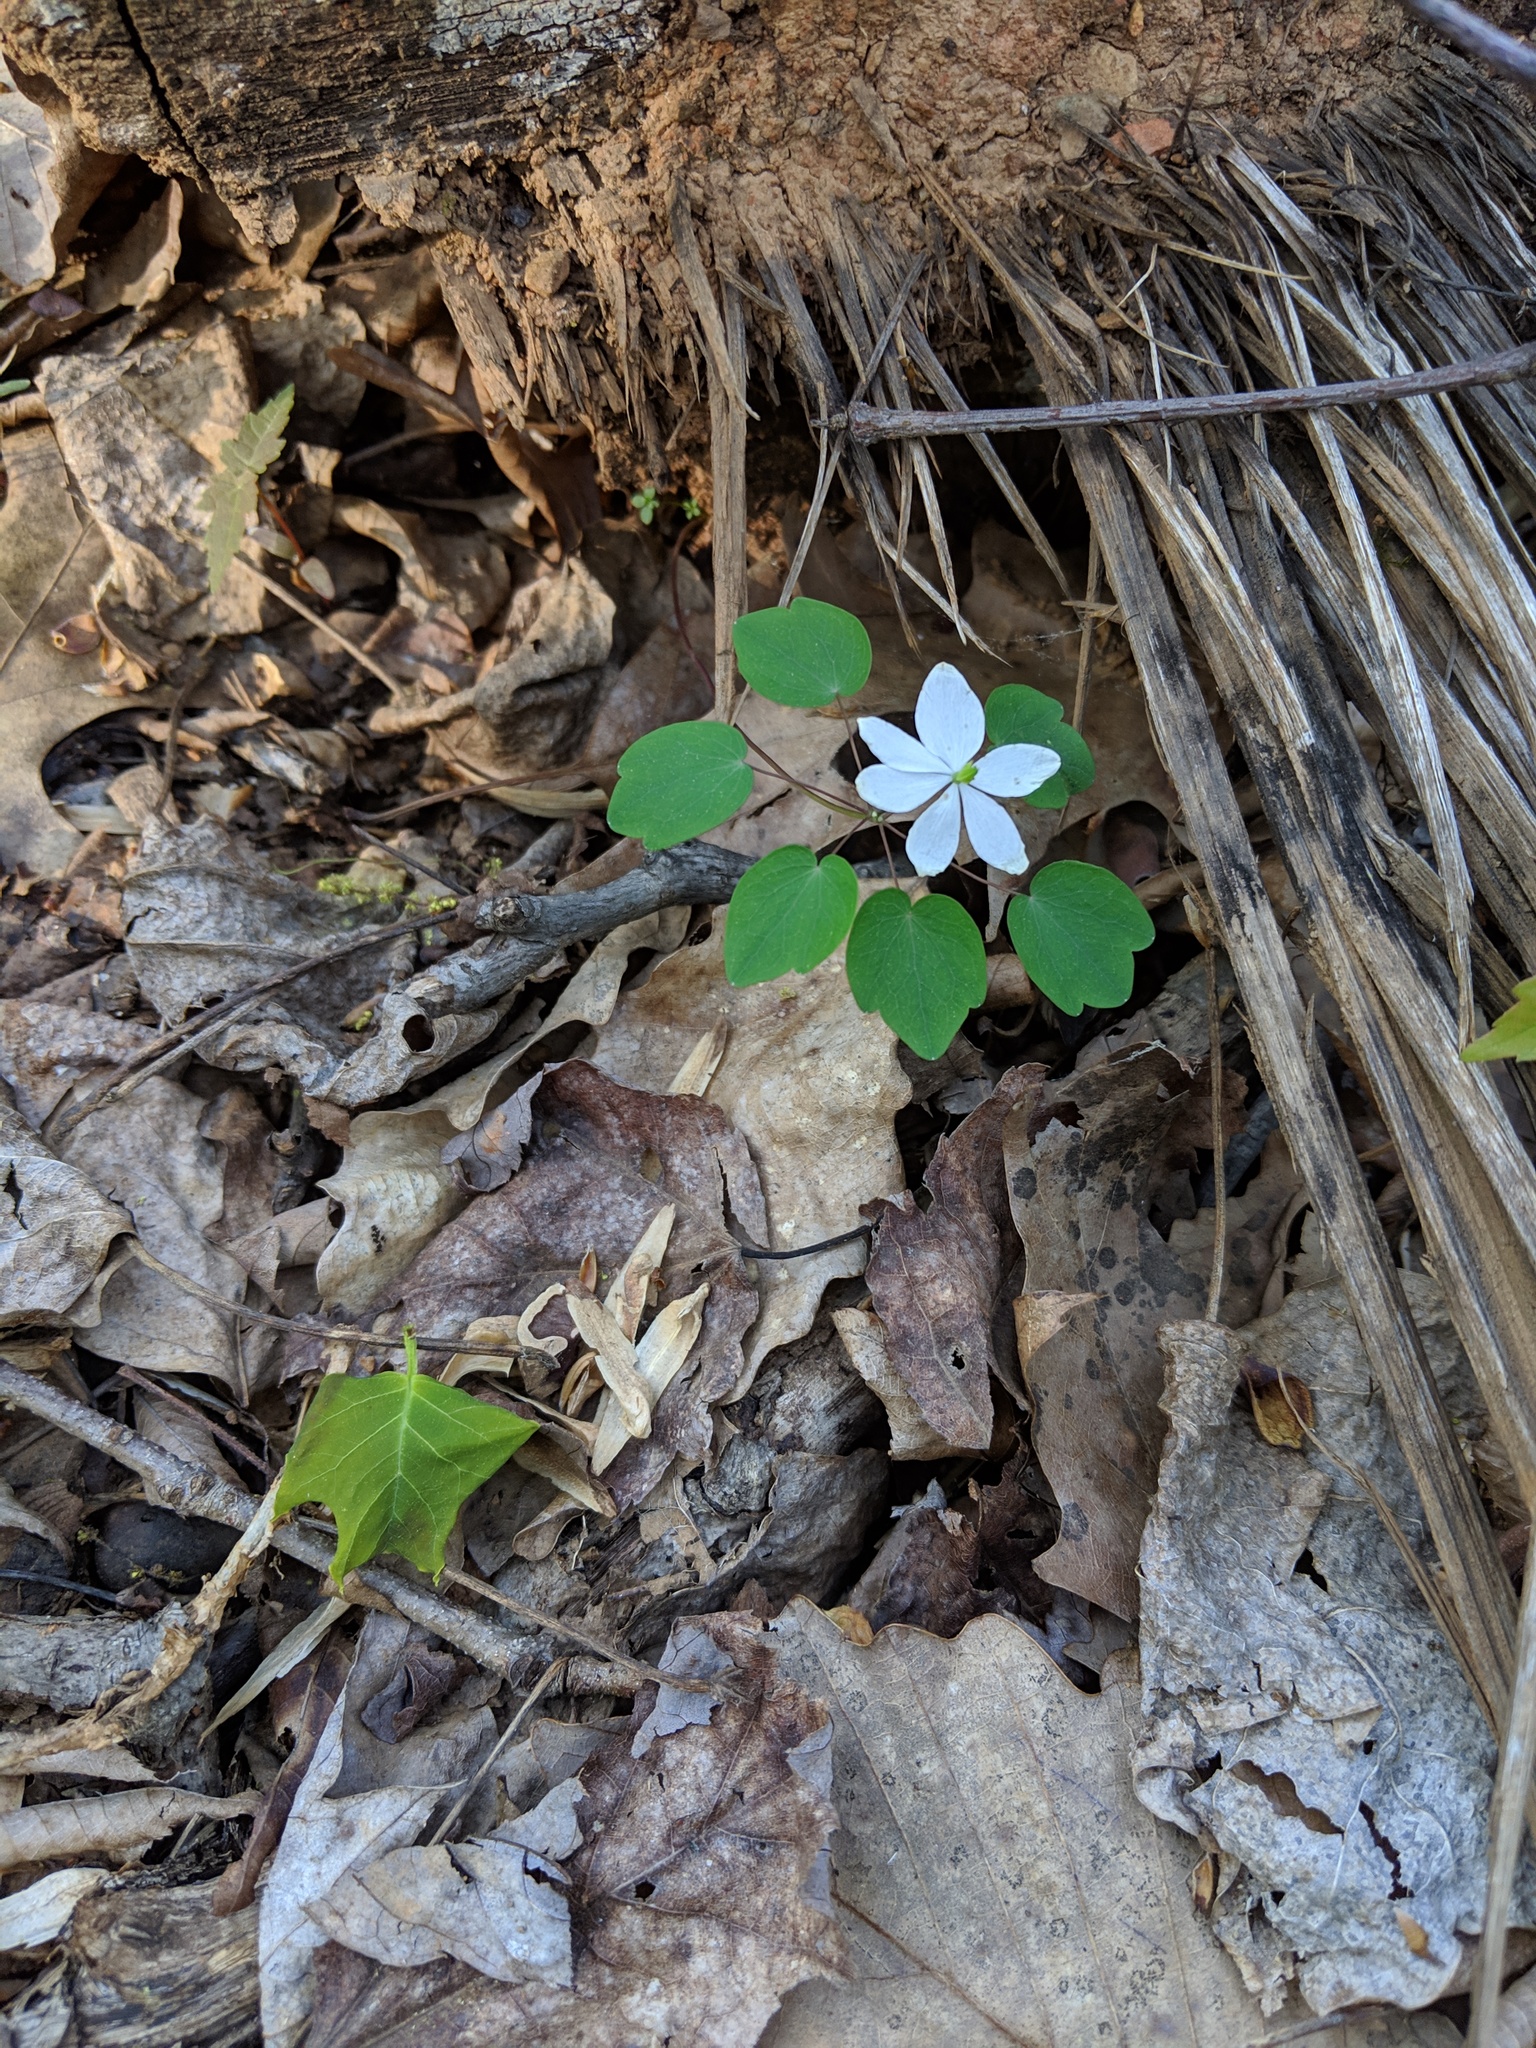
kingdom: Plantae
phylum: Tracheophyta
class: Magnoliopsida
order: Ranunculales
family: Ranunculaceae
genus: Thalictrum
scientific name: Thalictrum thalictroides
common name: Rue-anemone
